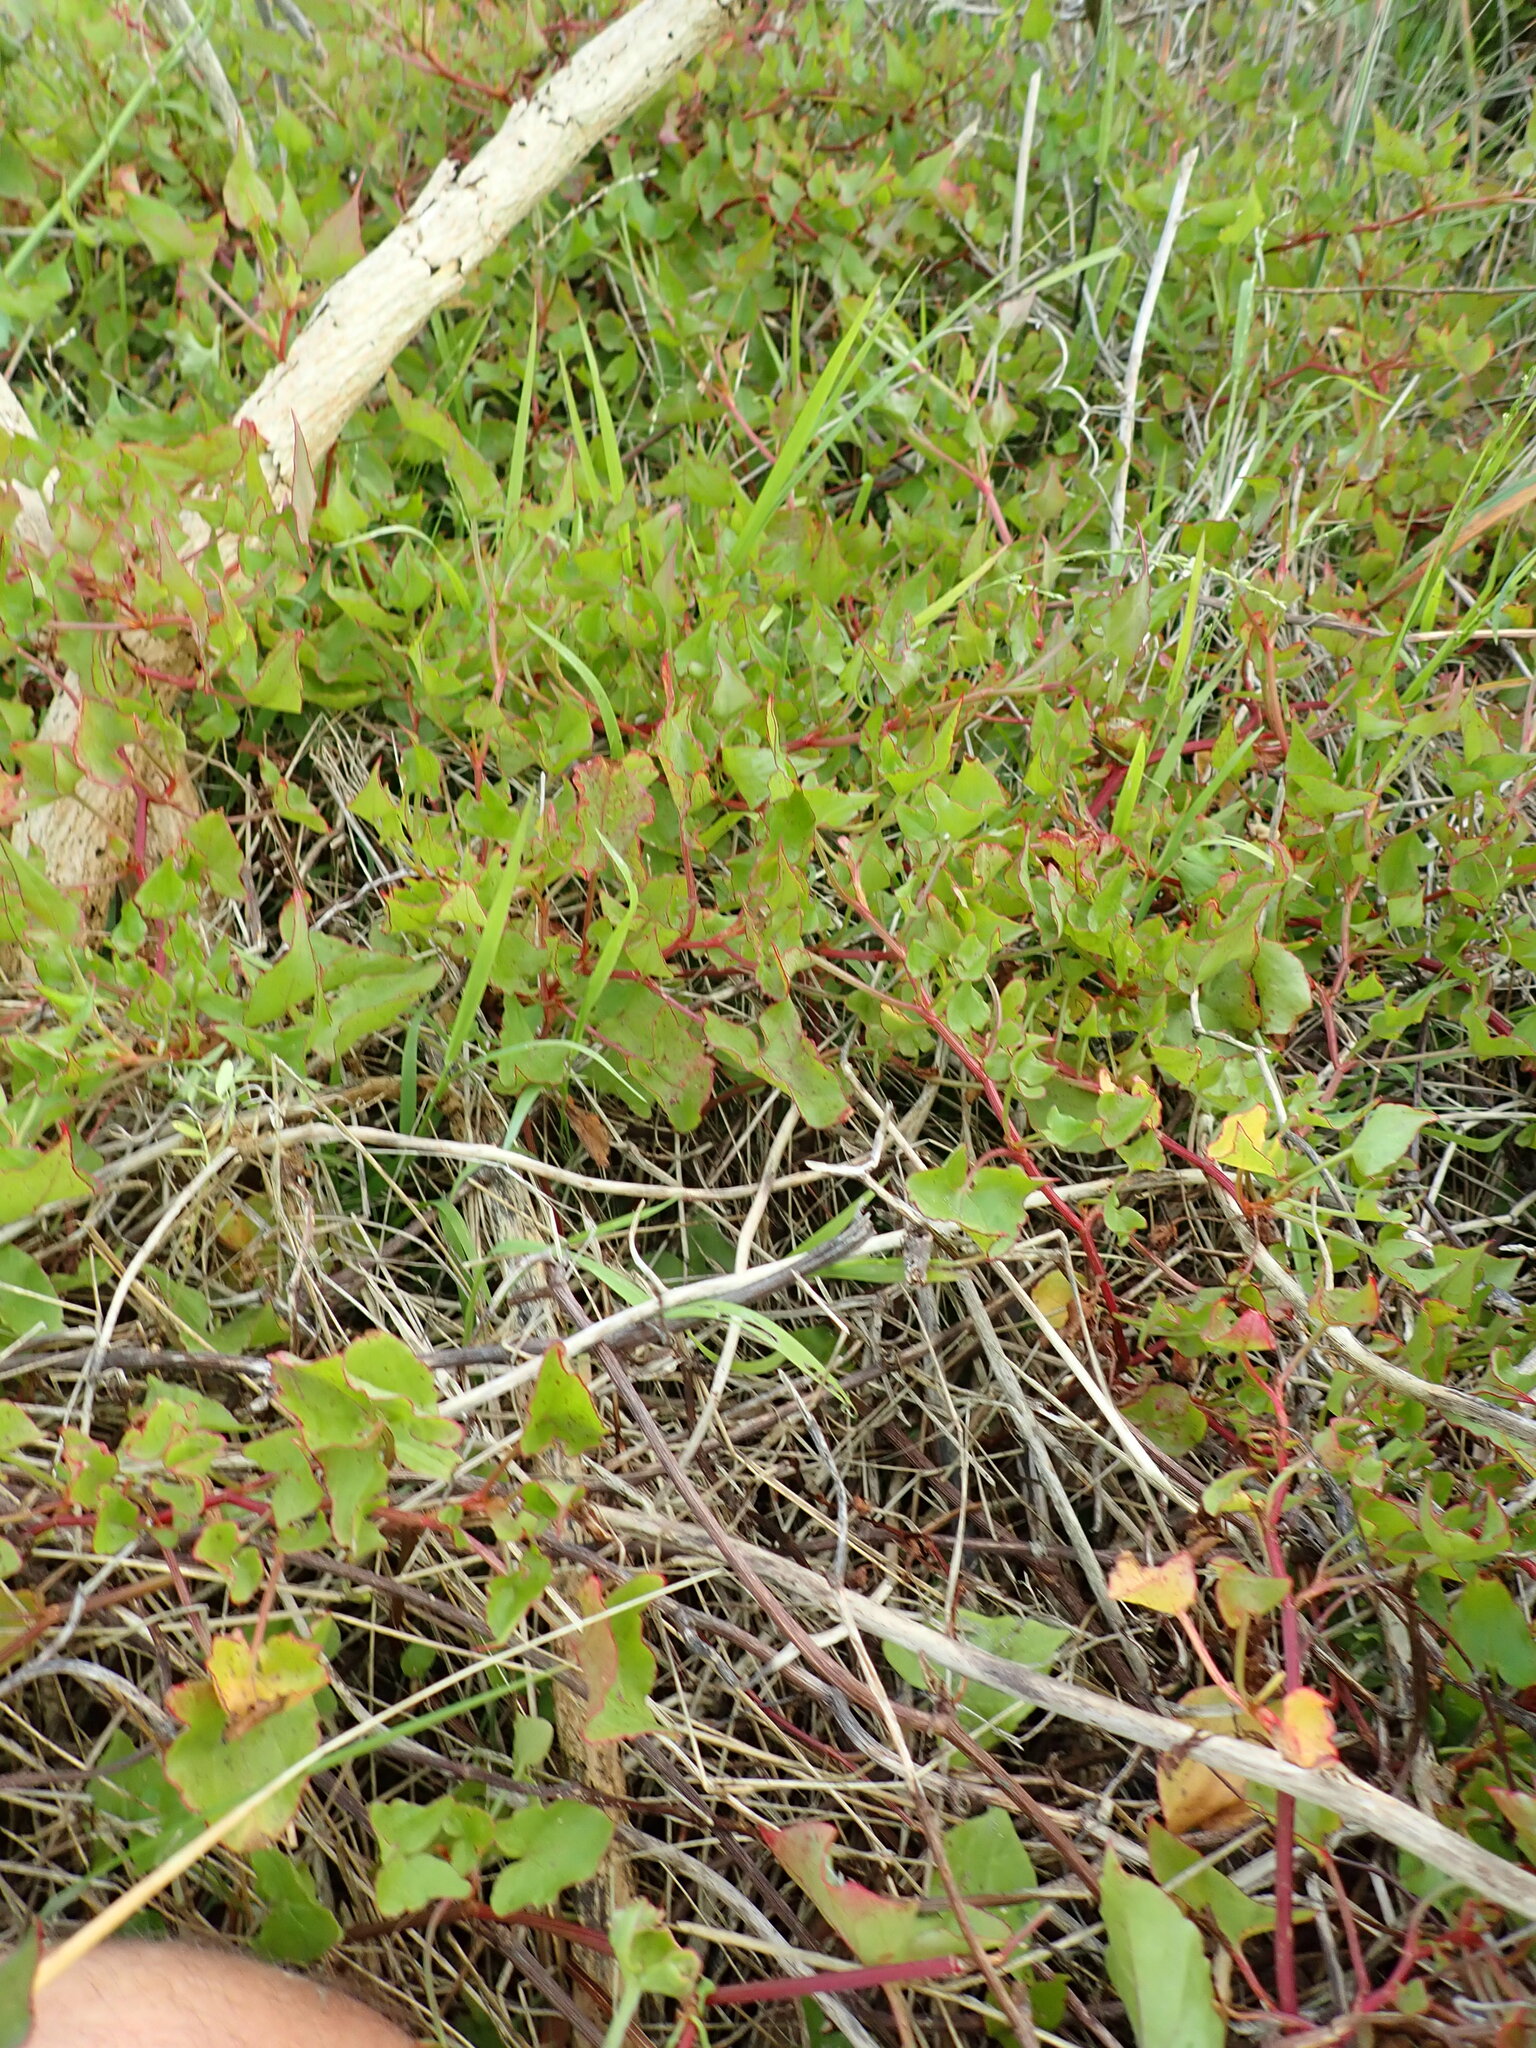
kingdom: Plantae
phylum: Tracheophyta
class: Magnoliopsida
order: Caryophyllales
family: Polygonaceae
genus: Rumex
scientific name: Rumex sagittatus
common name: Climbing dock
